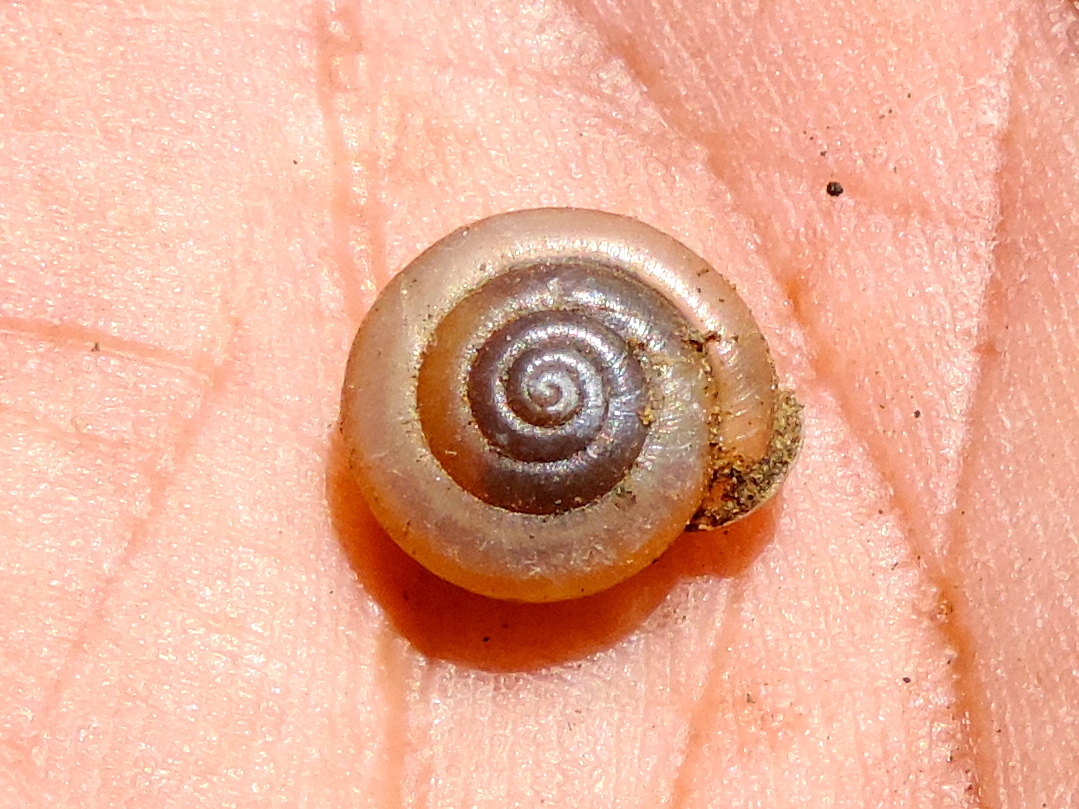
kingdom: Animalia
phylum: Mollusca
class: Gastropoda
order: Stylommatophora
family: Polygyridae
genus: Linisa
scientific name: Linisa
